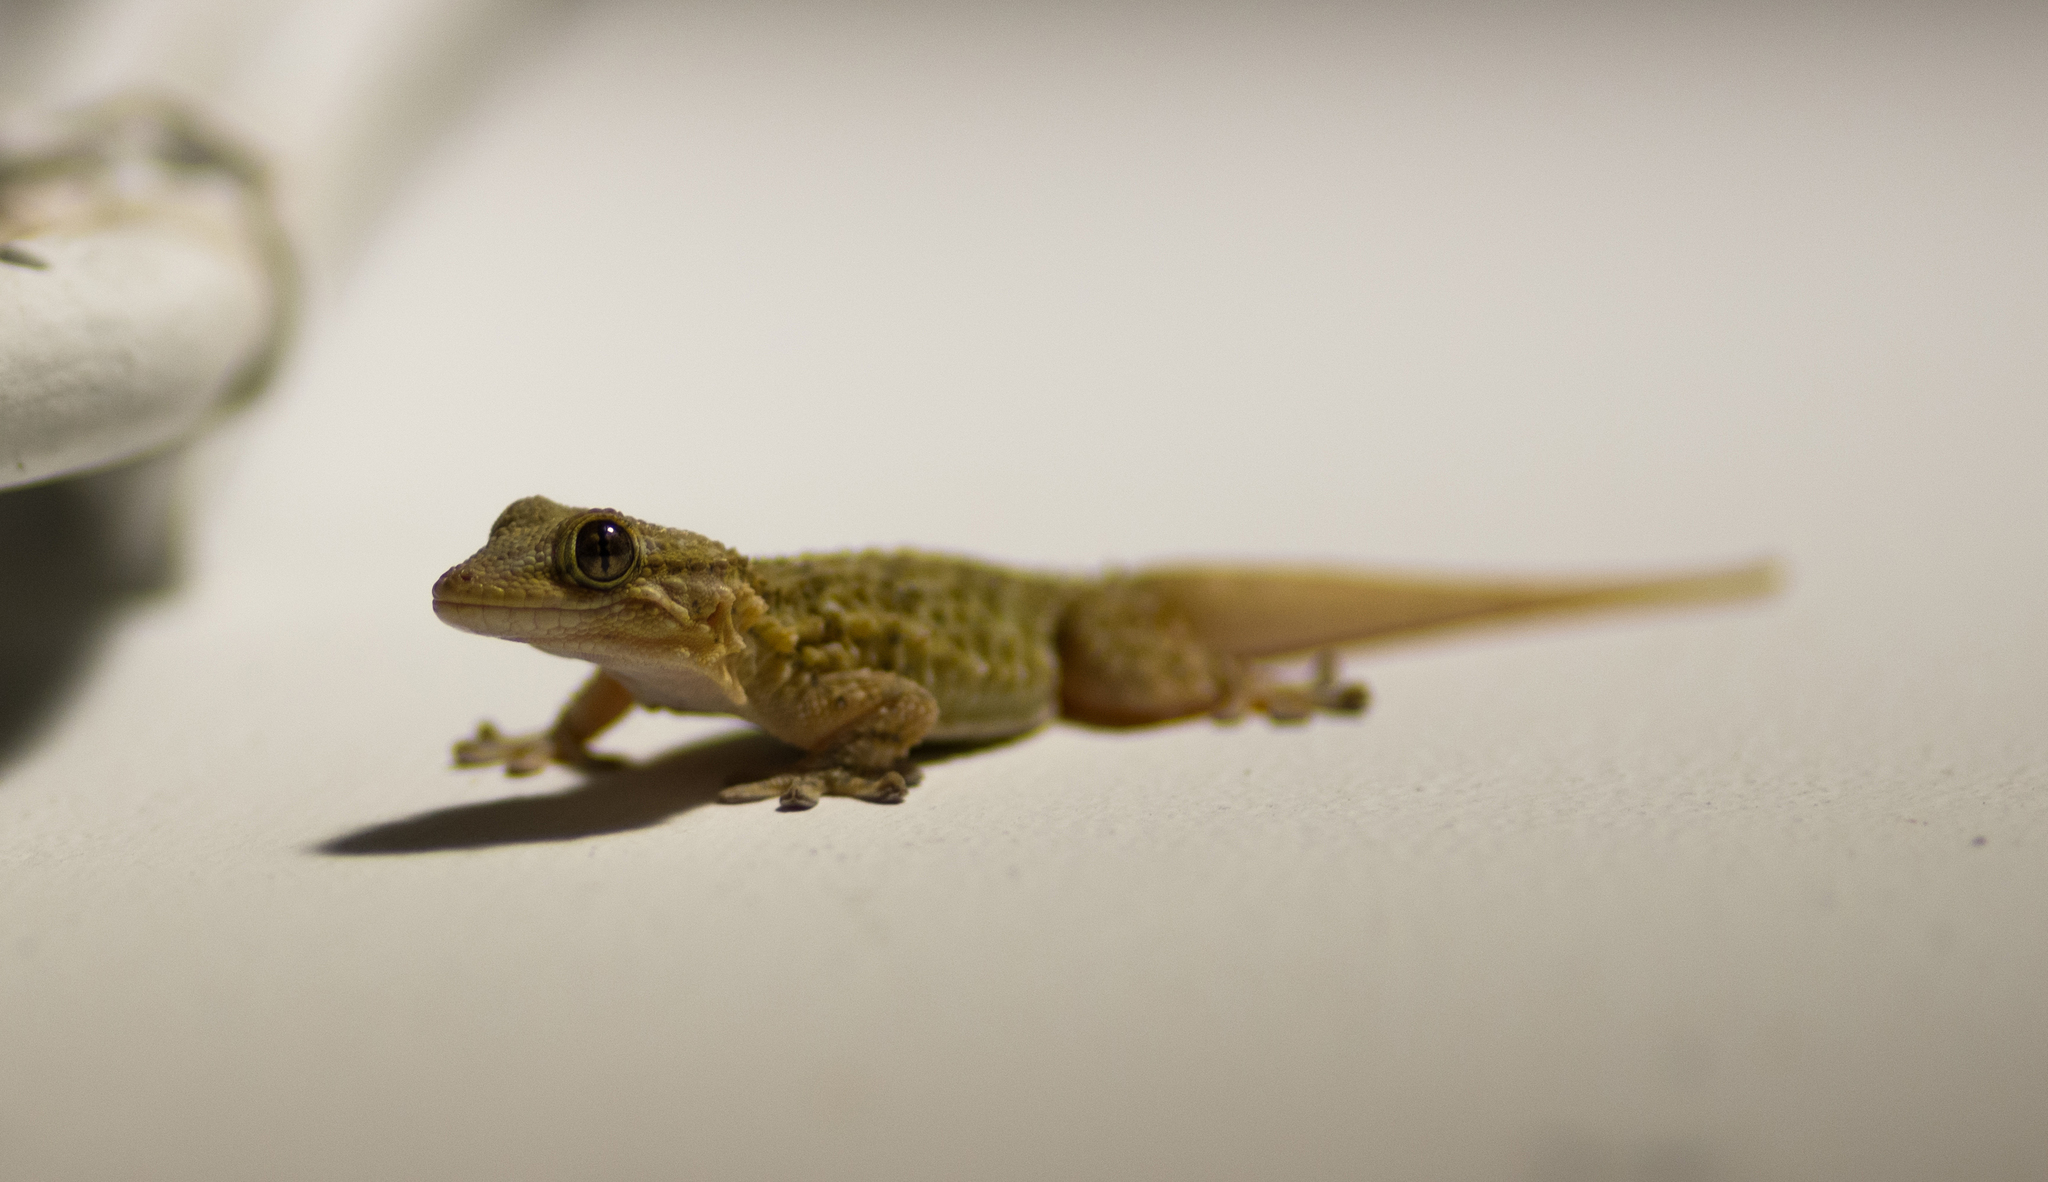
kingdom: Animalia
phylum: Chordata
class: Squamata
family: Phyllodactylidae
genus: Tarentola
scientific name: Tarentola mauritanica
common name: Moorish gecko
